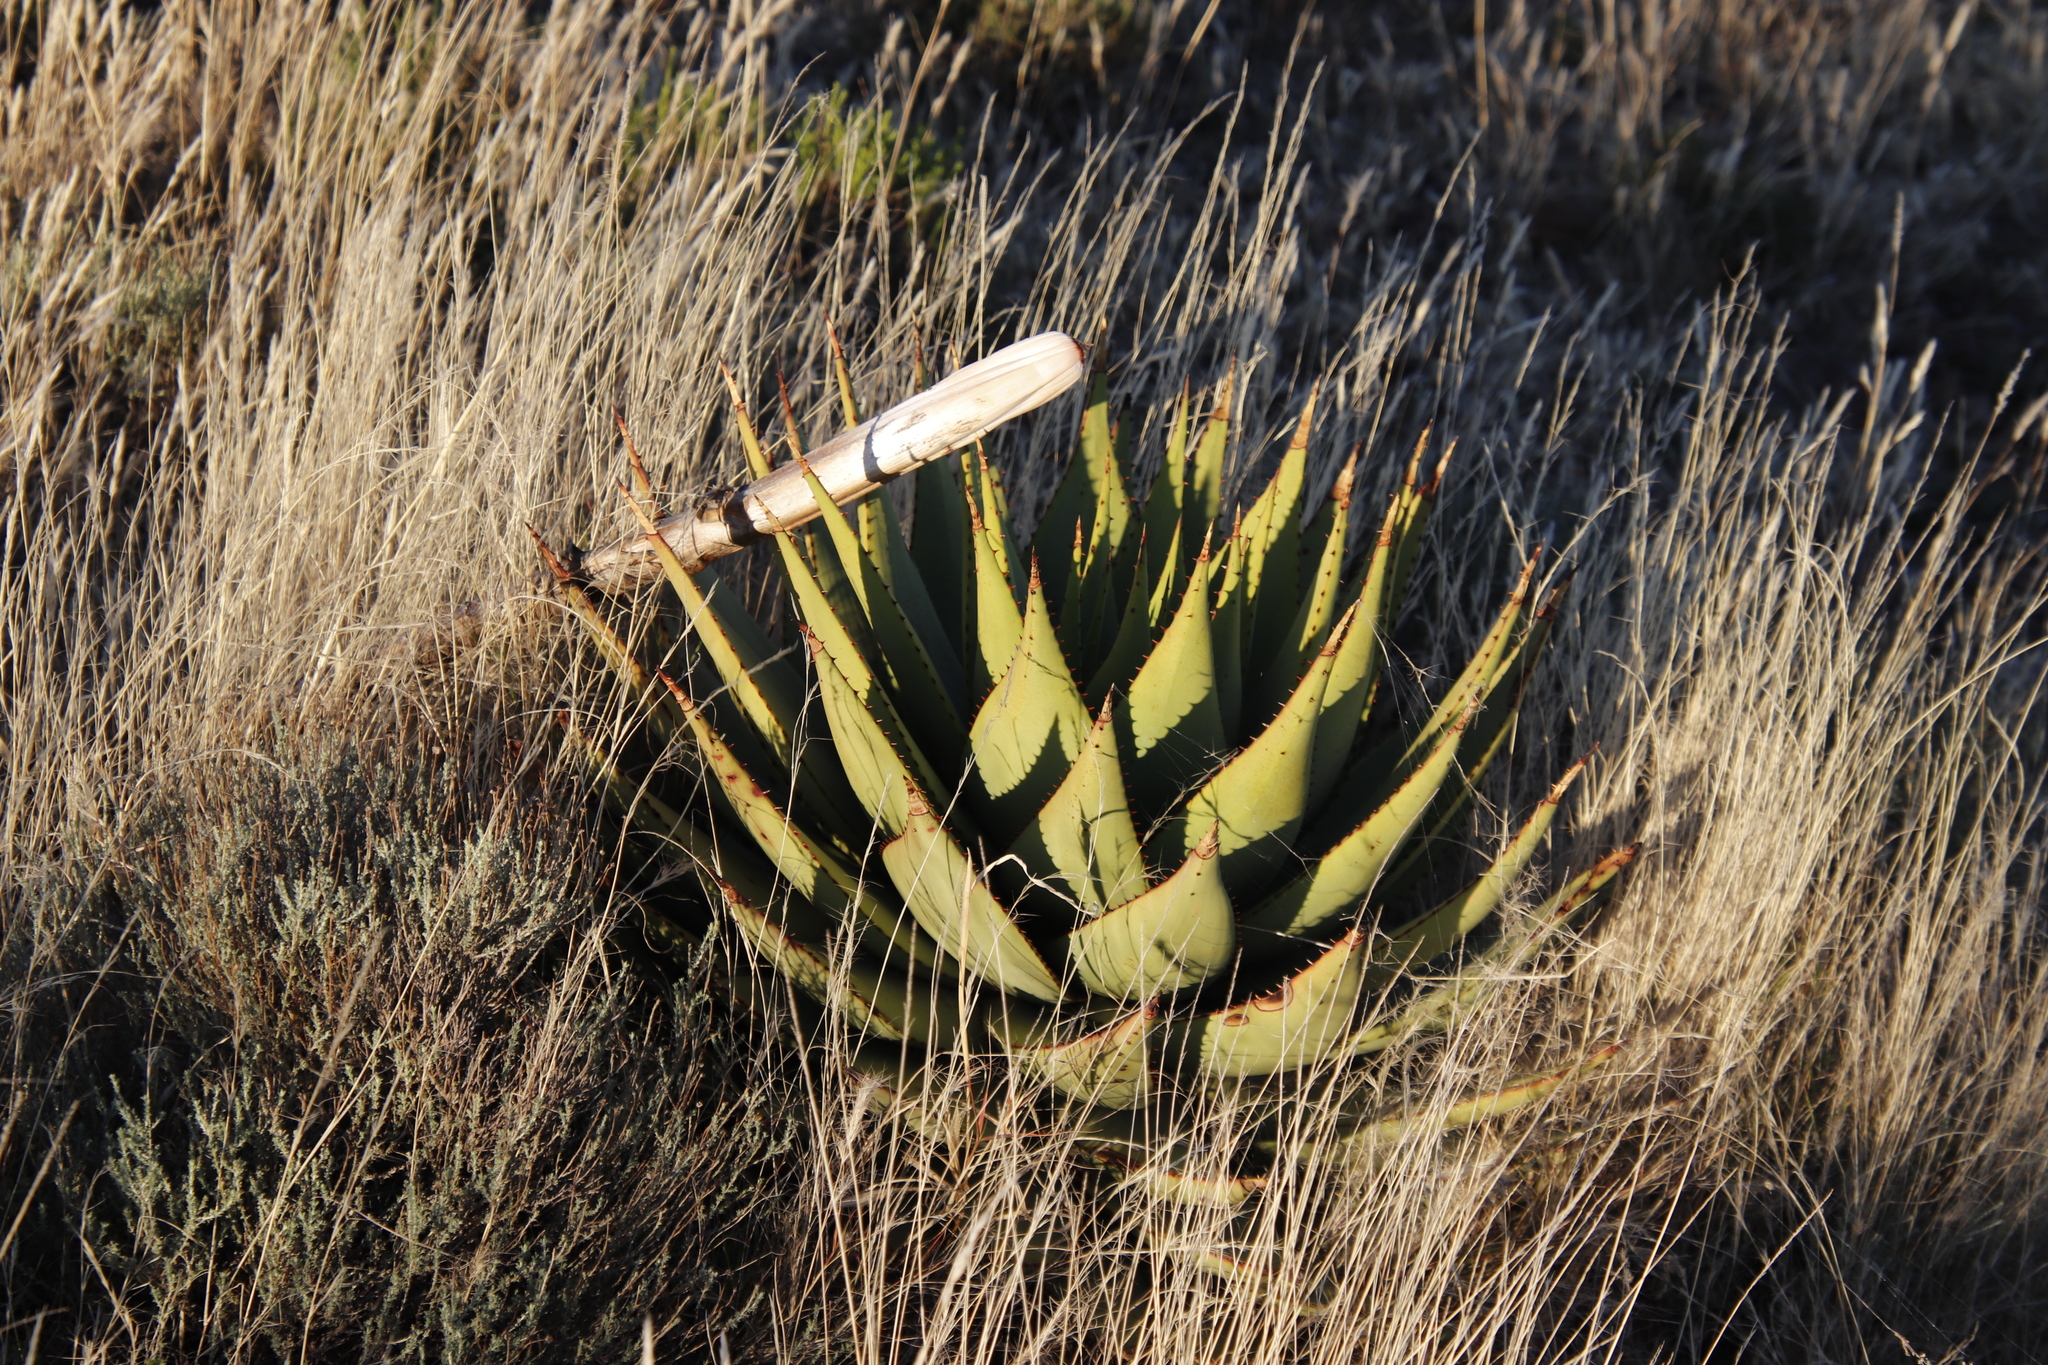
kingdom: Plantae
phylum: Tracheophyta
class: Liliopsida
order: Asparagales
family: Asphodelaceae
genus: Aloe
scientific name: Aloe broomii
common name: Berg alwyn
